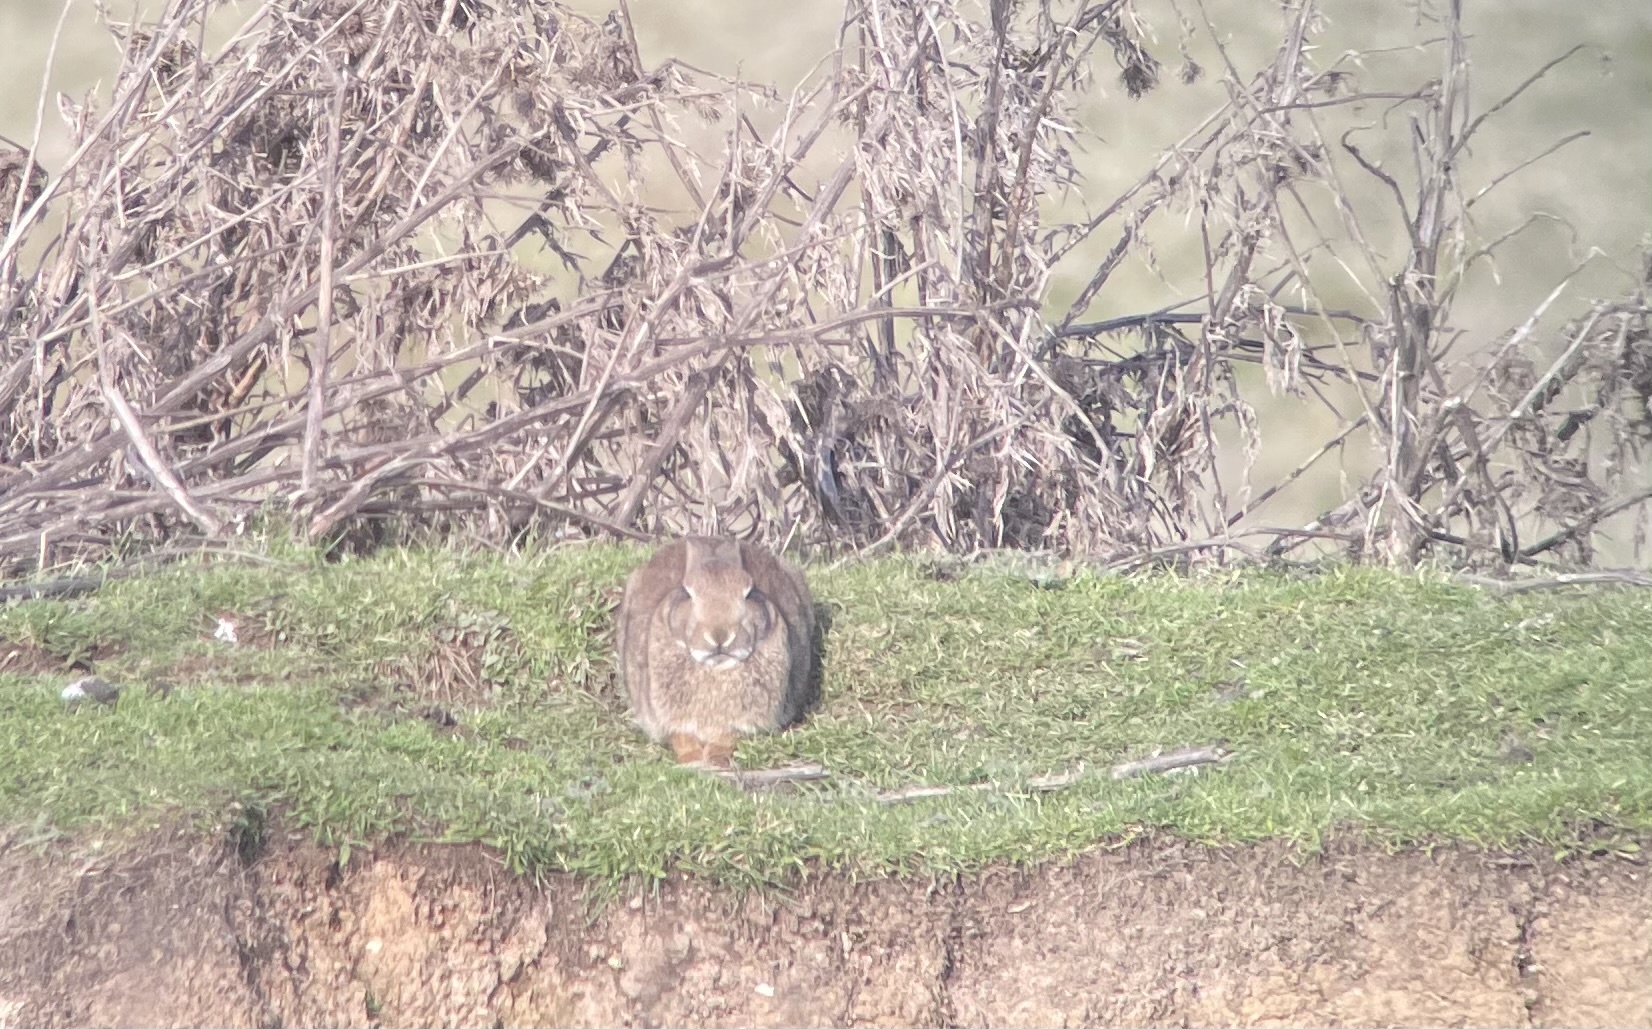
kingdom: Animalia
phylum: Chordata
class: Mammalia
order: Lagomorpha
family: Leporidae
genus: Oryctolagus
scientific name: Oryctolagus cuniculus
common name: European rabbit
